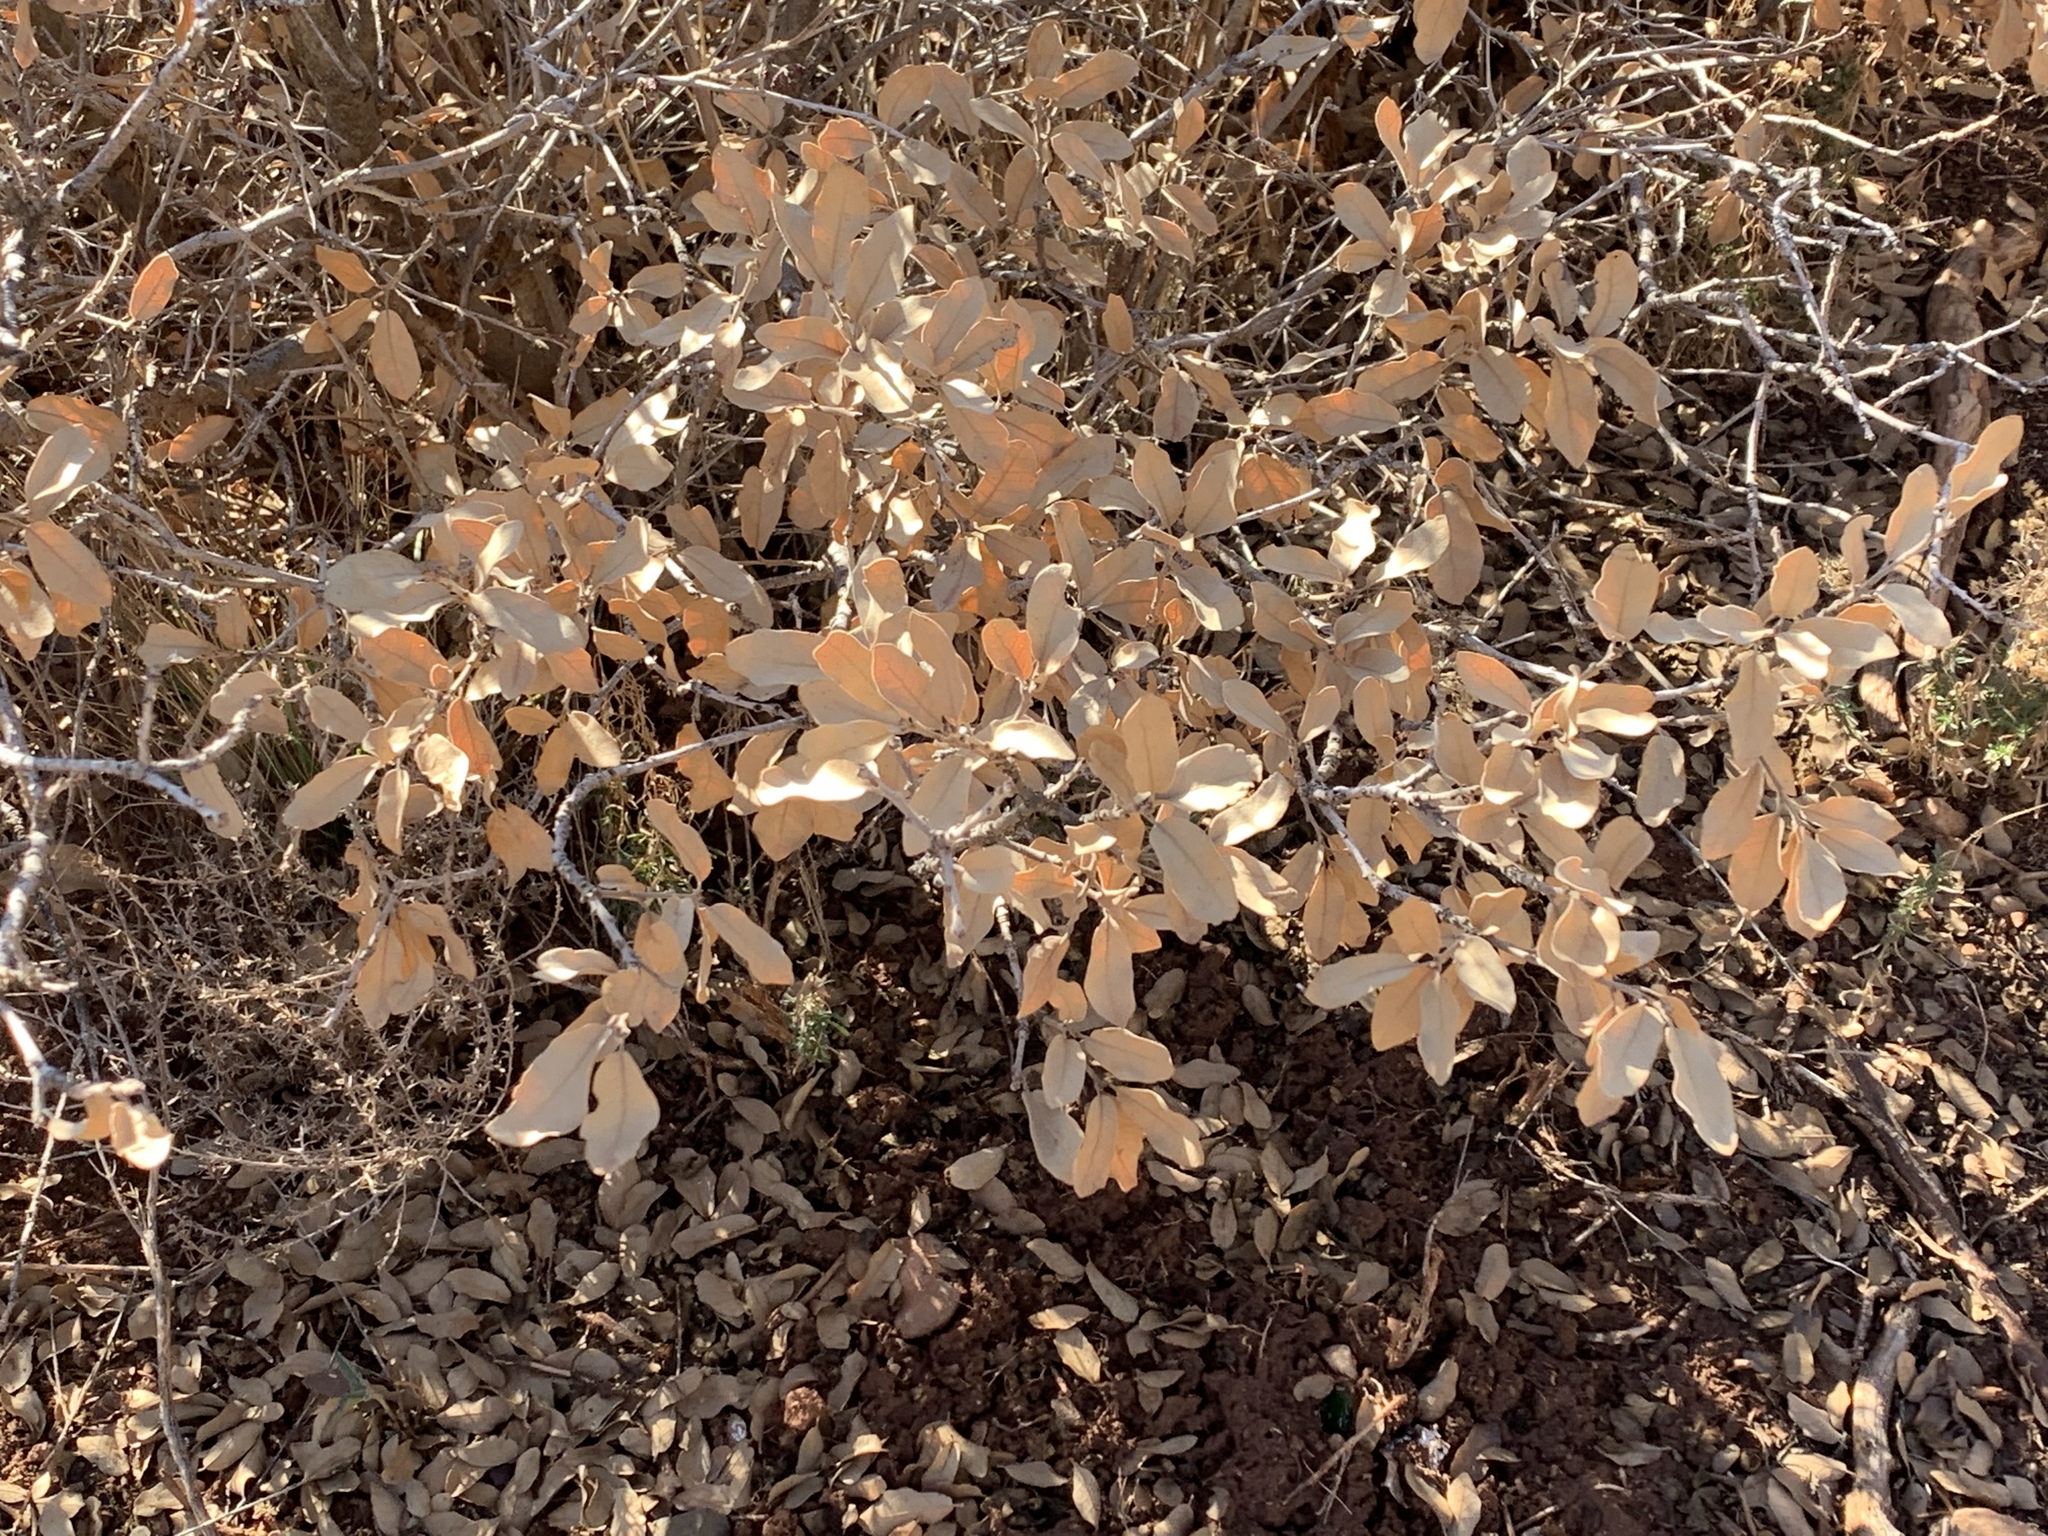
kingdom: Plantae
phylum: Tracheophyta
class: Magnoliopsida
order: Fagales
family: Fagaceae
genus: Quercus
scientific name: Quercus undulata
